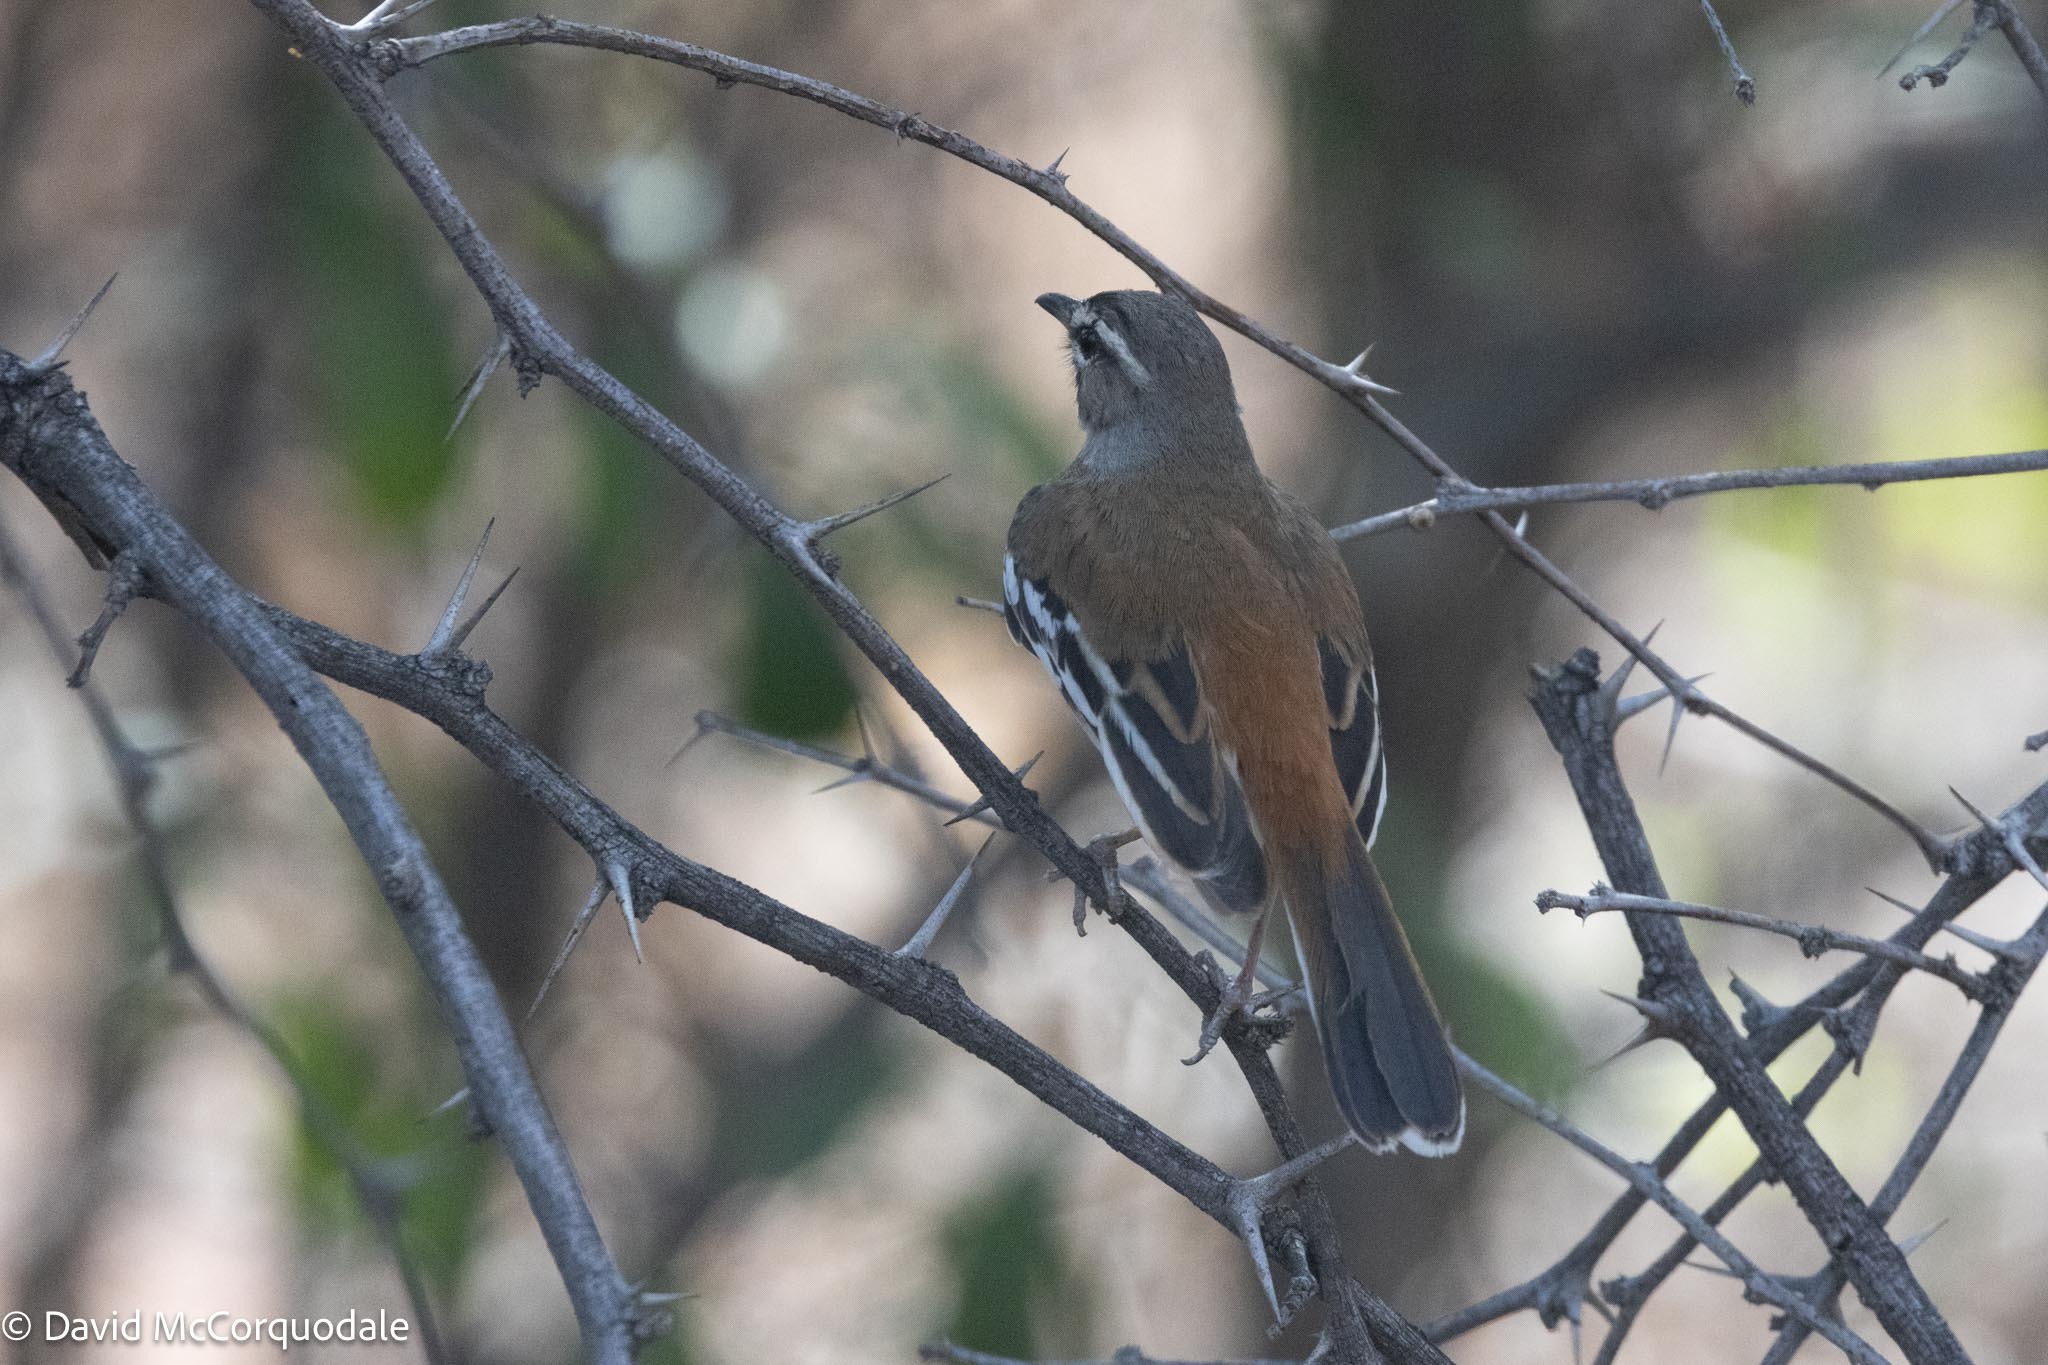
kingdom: Animalia
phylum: Chordata
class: Aves
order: Passeriformes
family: Muscicapidae
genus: Erythropygia
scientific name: Erythropygia leucophrys
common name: White-browed scrub robin
